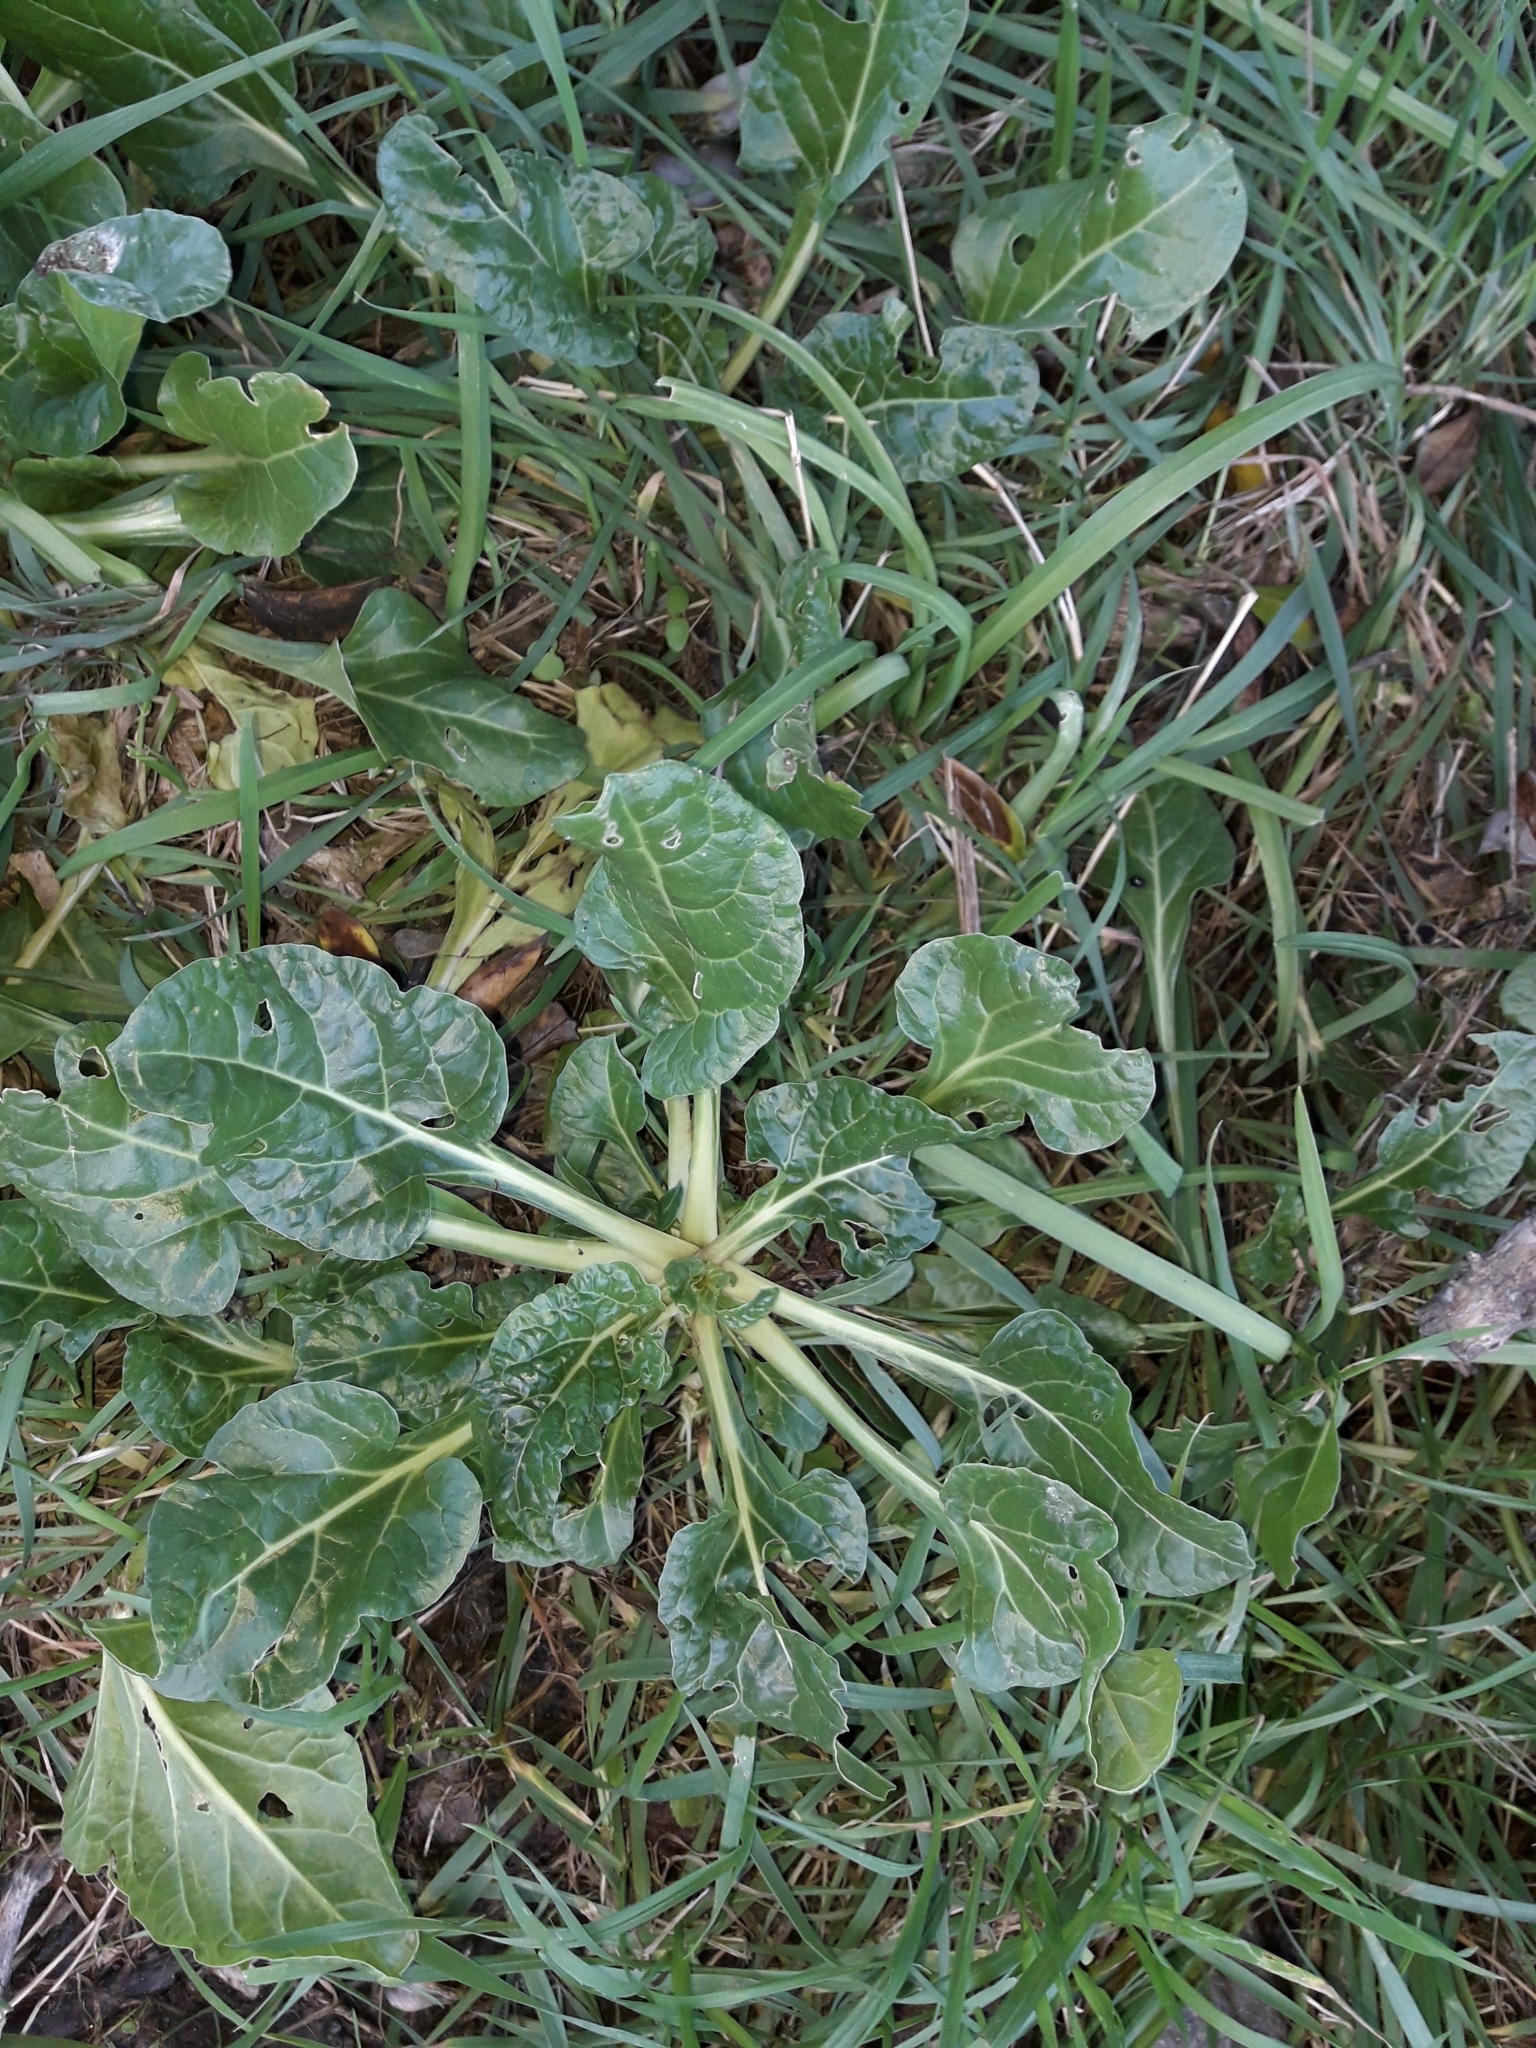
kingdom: Plantae
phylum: Tracheophyta
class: Magnoliopsida
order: Caryophyllales
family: Amaranthaceae
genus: Beta
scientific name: Beta vulgaris
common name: Beet
